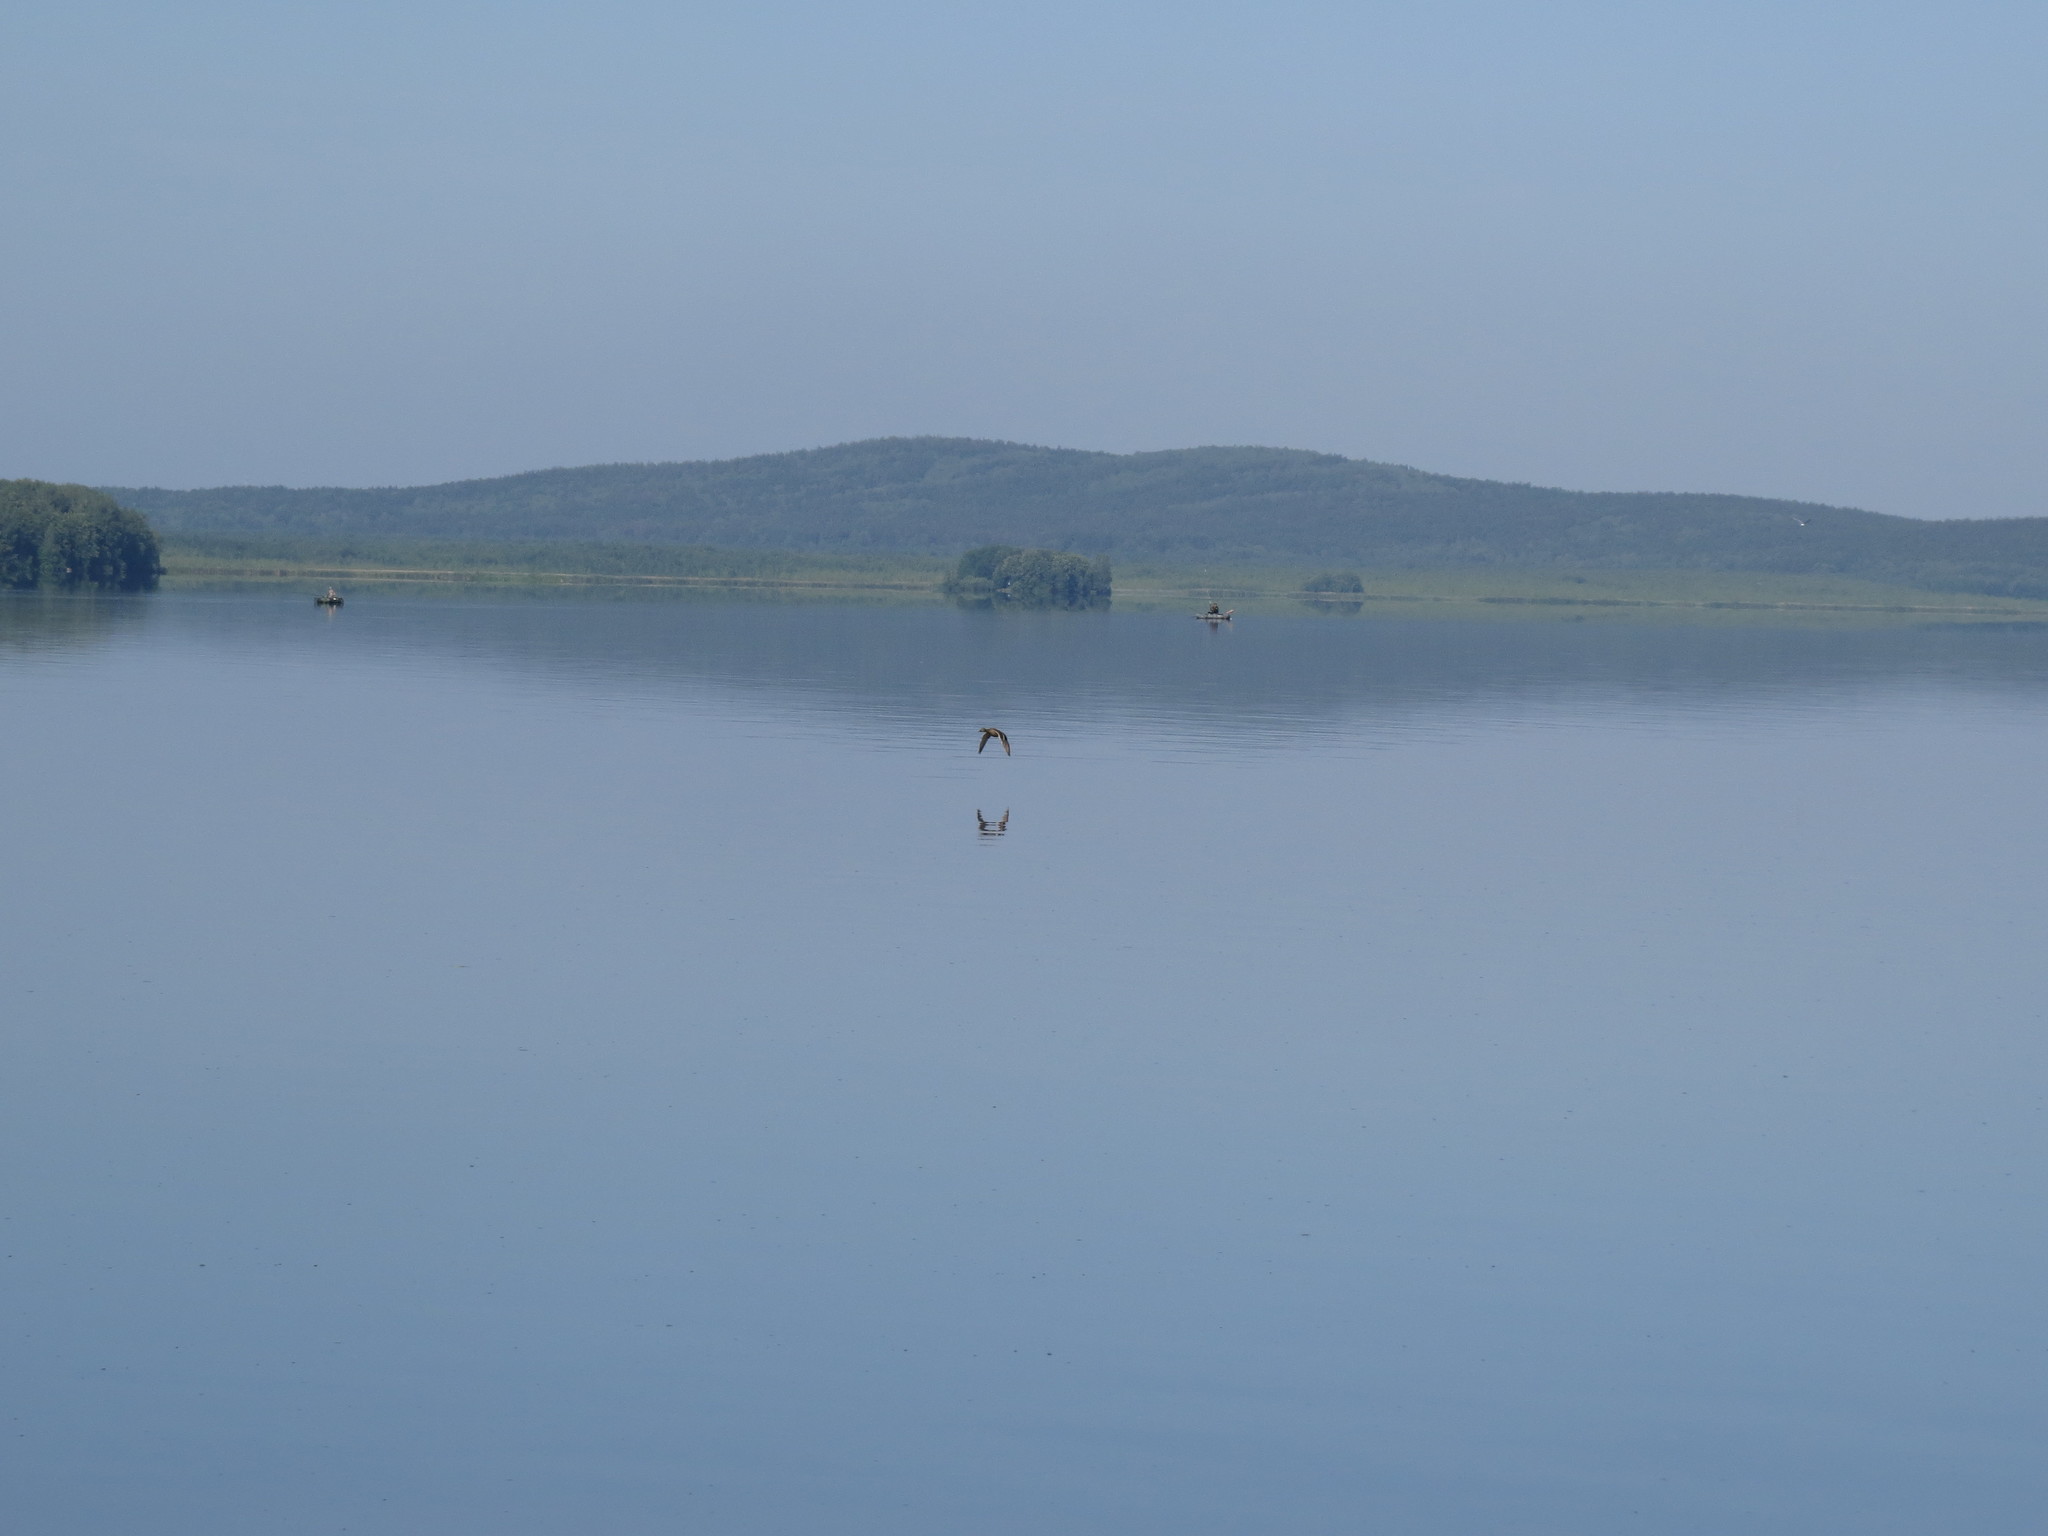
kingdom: Animalia
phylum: Chordata
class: Aves
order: Anseriformes
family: Anatidae
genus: Anas
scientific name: Anas platyrhynchos
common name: Mallard
